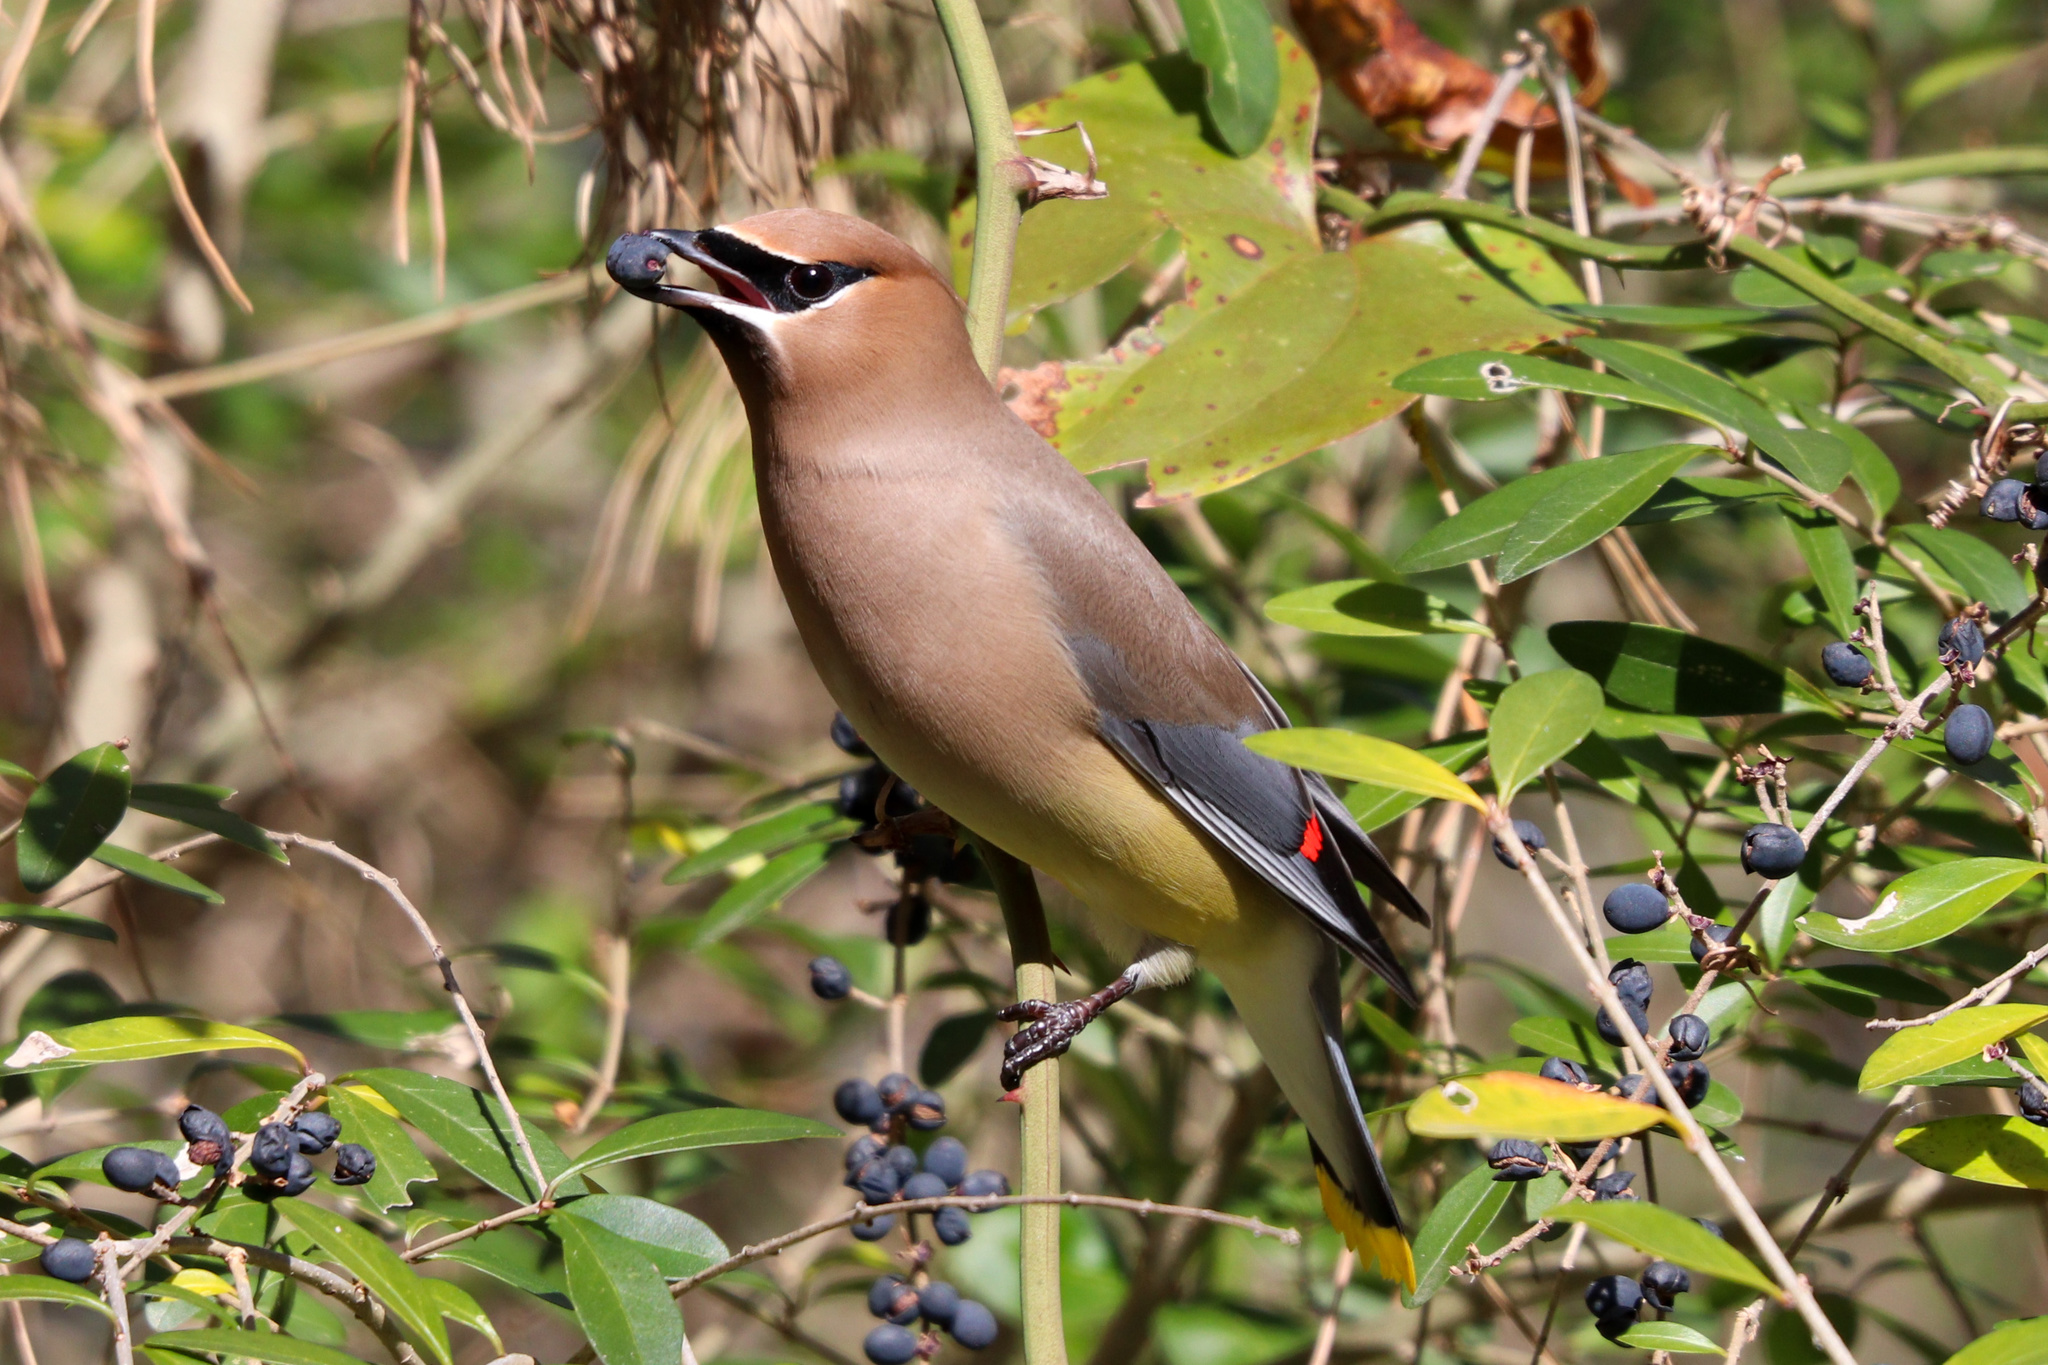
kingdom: Animalia
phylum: Chordata
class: Aves
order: Passeriformes
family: Bombycillidae
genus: Bombycilla
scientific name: Bombycilla cedrorum
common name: Cedar waxwing
